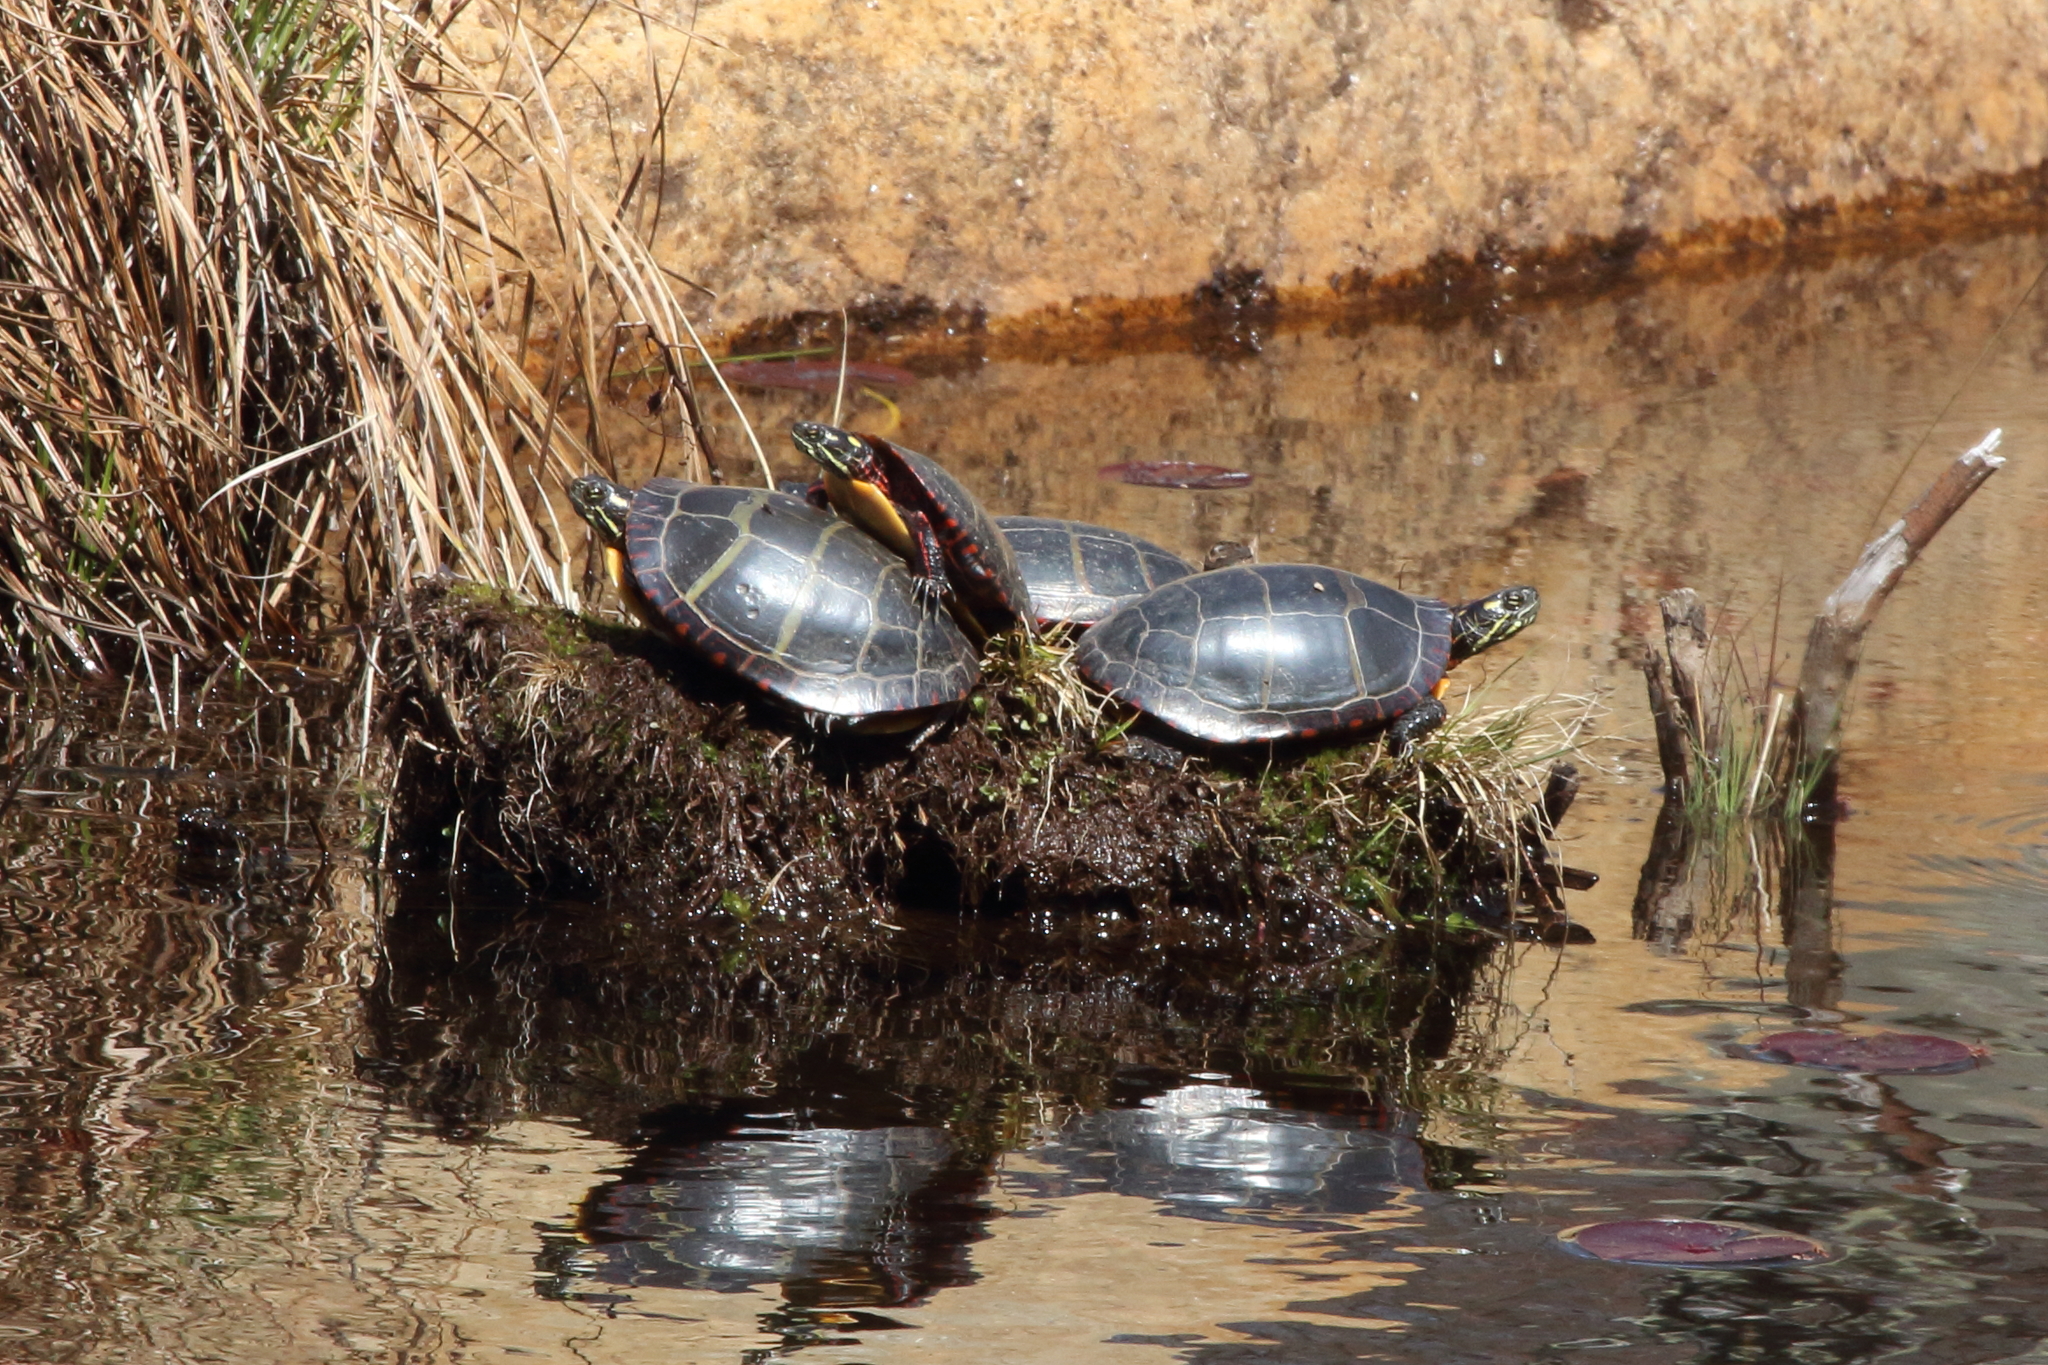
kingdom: Animalia
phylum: Chordata
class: Testudines
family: Emydidae
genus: Chrysemys
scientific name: Chrysemys picta
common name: Painted turtle
